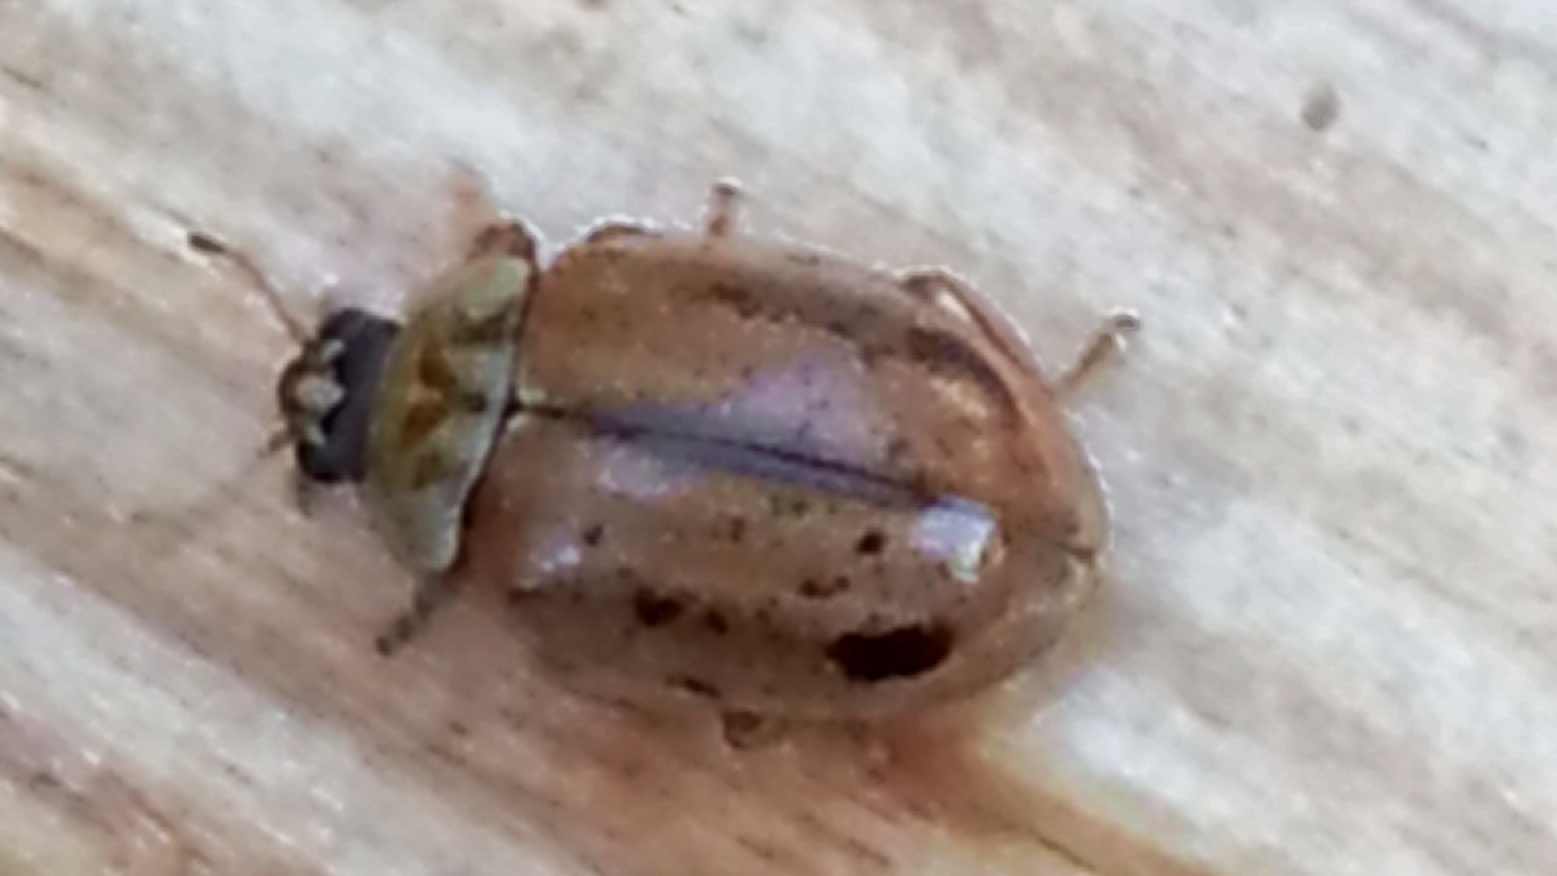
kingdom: Animalia
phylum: Arthropoda
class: Insecta
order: Coleoptera
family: Coccinellidae
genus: Aphidecta
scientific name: Aphidecta obliterata
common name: Larch ladybird
